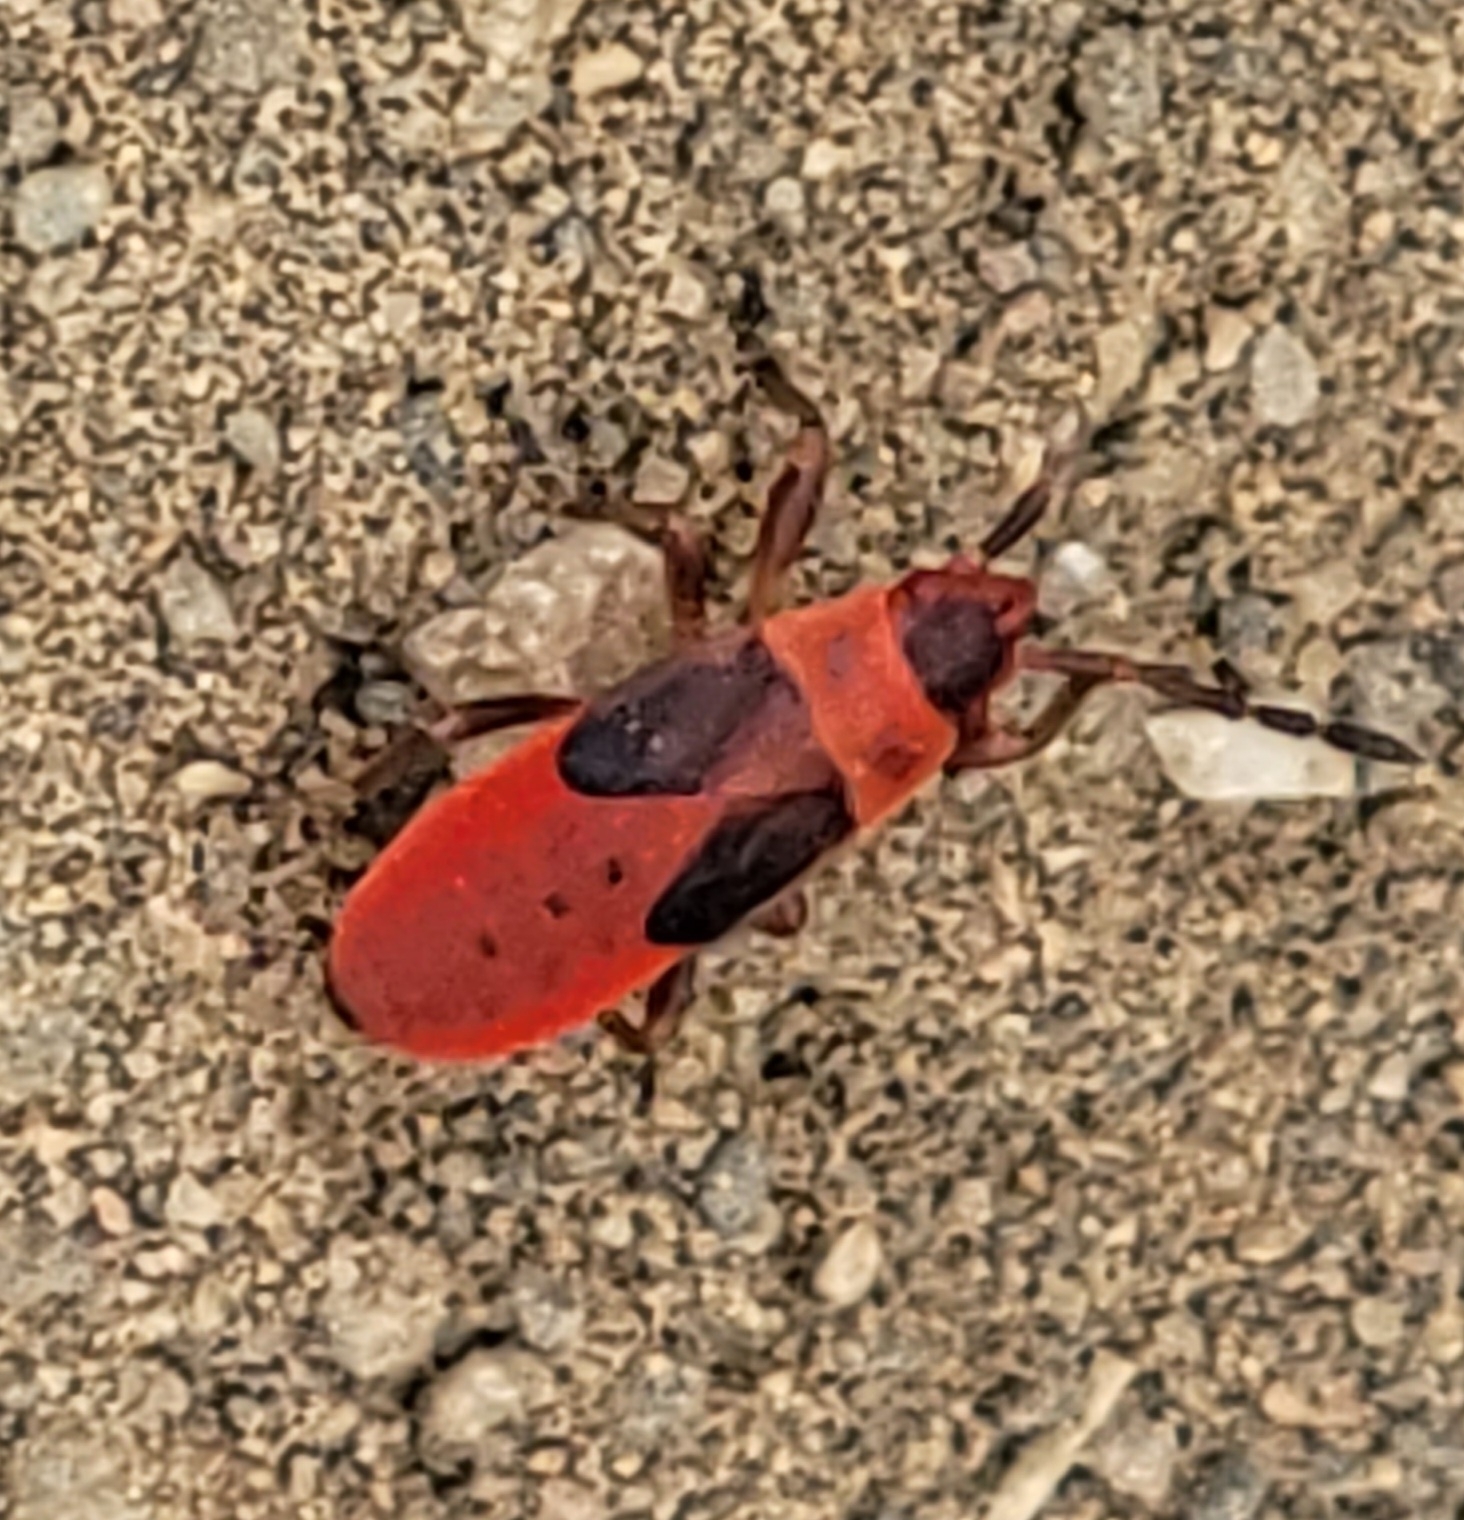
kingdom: Animalia
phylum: Arthropoda
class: Insecta
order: Hemiptera
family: Pyrrhocoridae
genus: Scantius
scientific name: Scantius aegyptius
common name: Red bug
